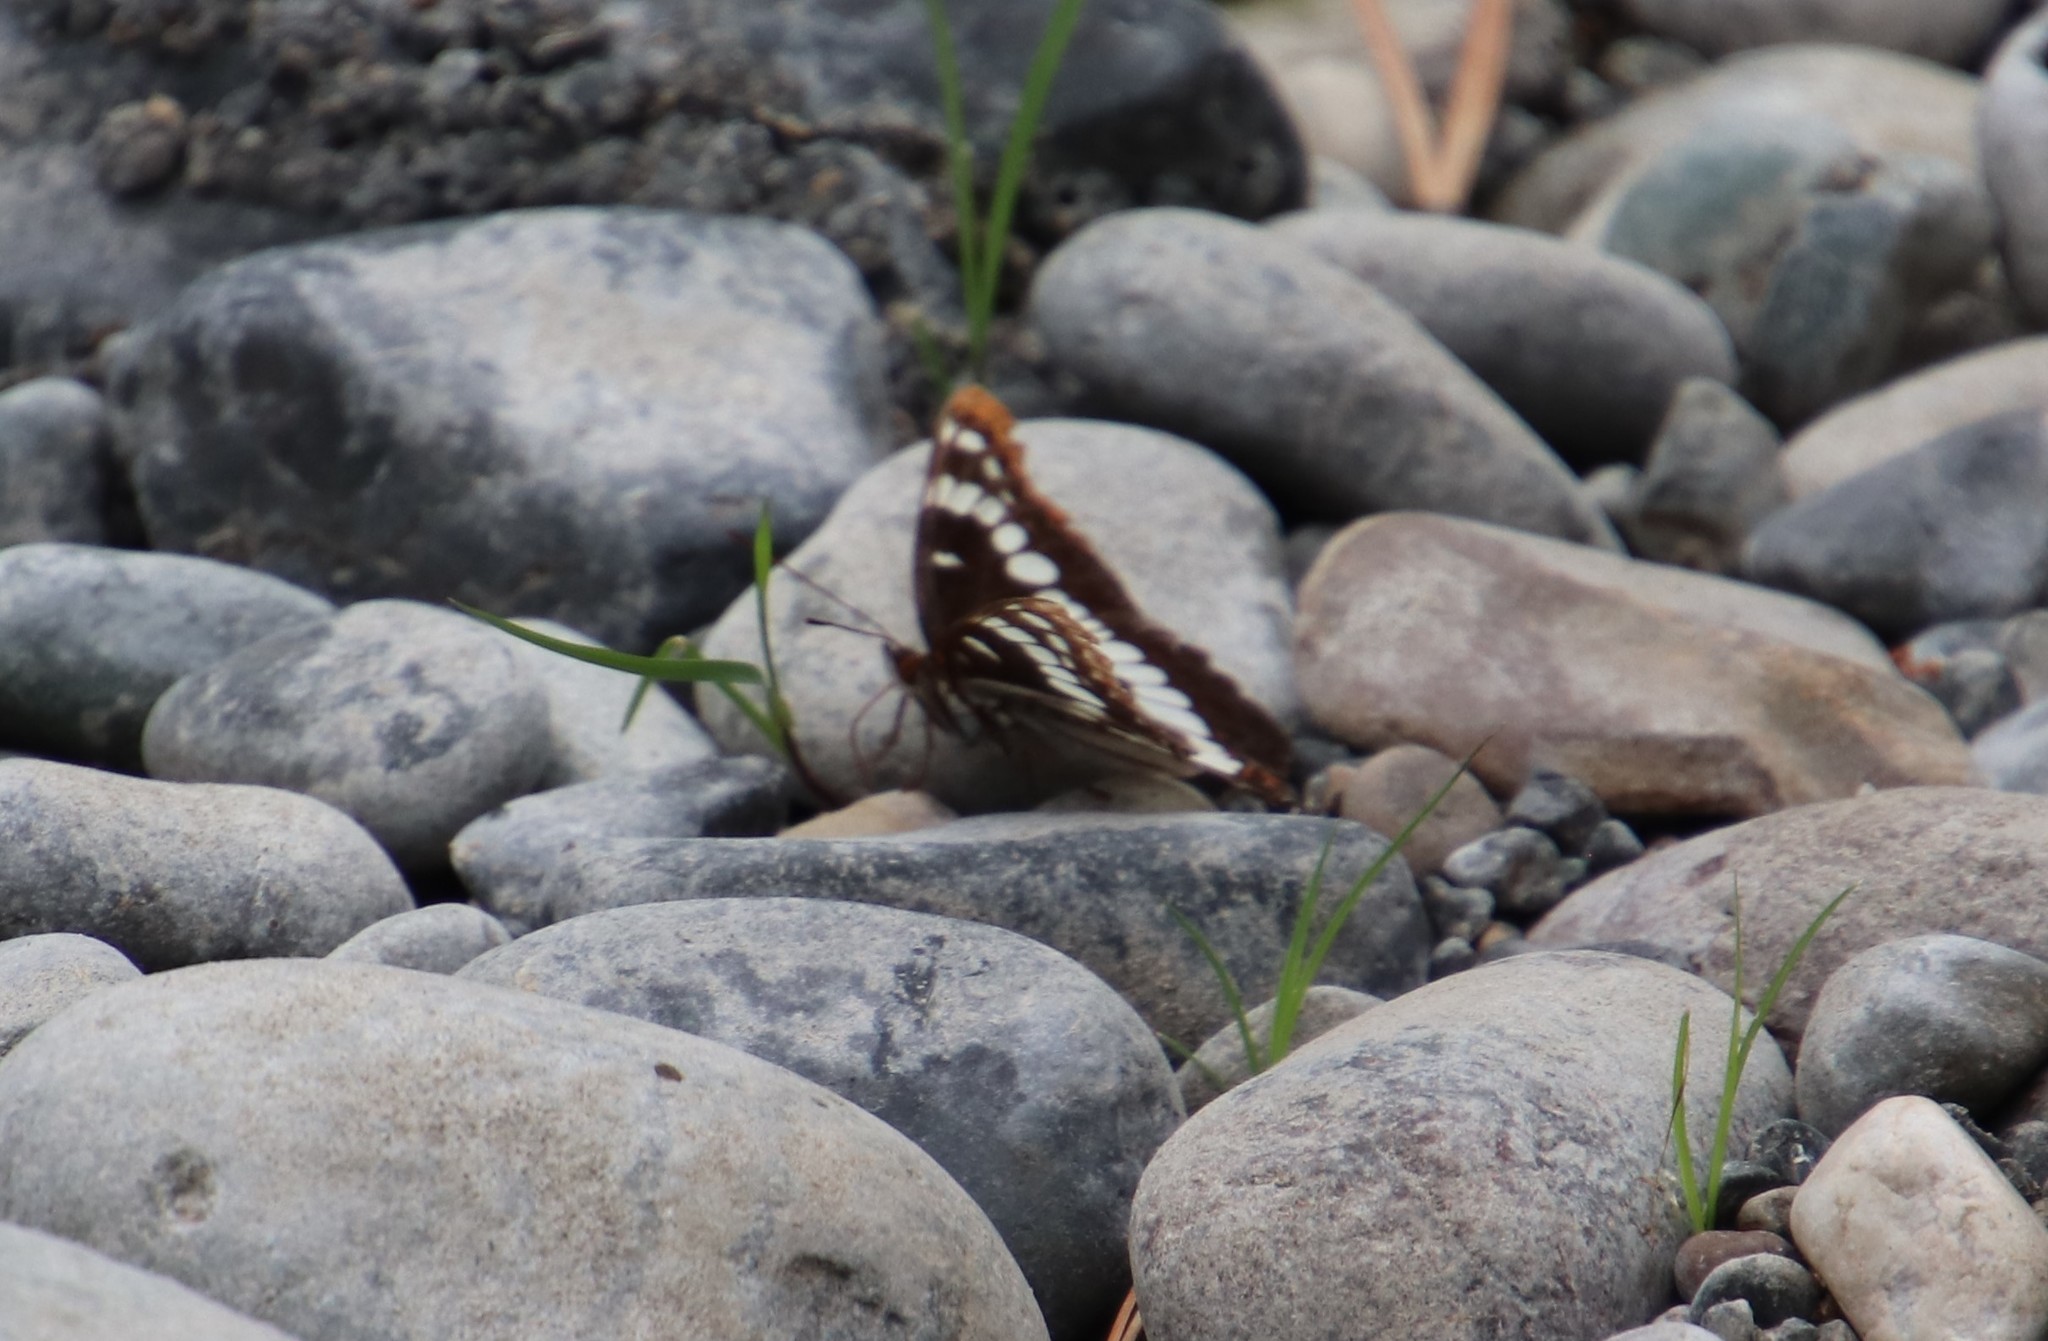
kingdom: Animalia
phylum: Arthropoda
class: Insecta
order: Lepidoptera
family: Nymphalidae
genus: Limenitis
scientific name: Limenitis lorquini
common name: Lorquin's admiral
